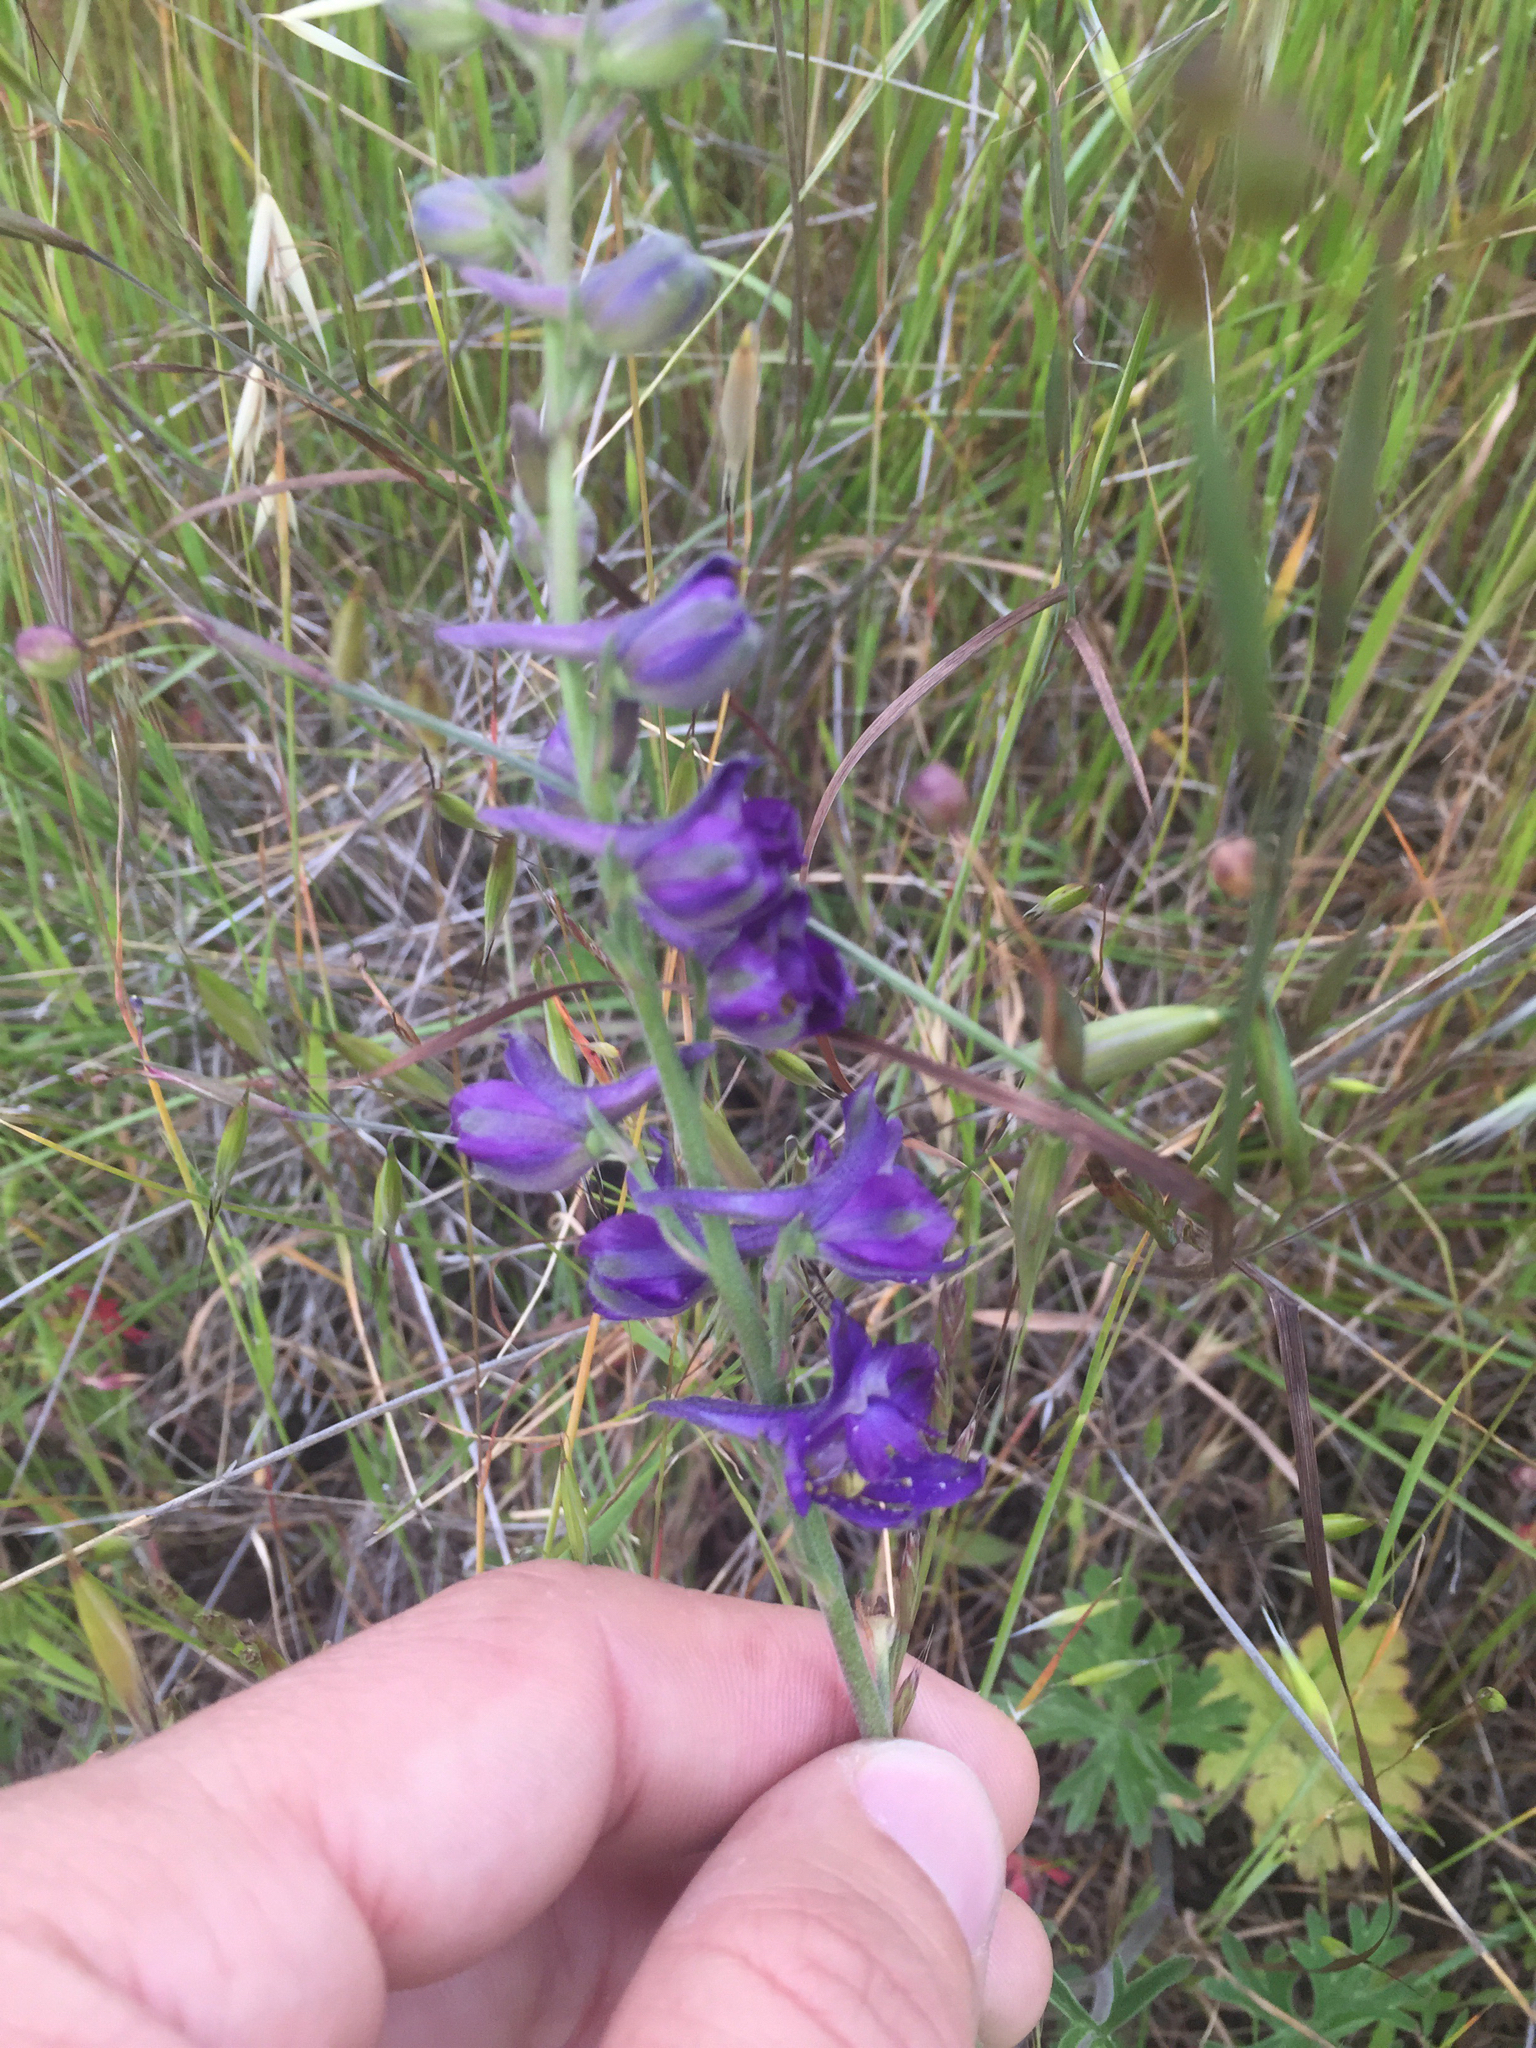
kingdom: Plantae
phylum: Tracheophyta
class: Magnoliopsida
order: Ranunculales
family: Ranunculaceae
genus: Delphinium
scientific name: Delphinium hesperium
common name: Western larkspur
